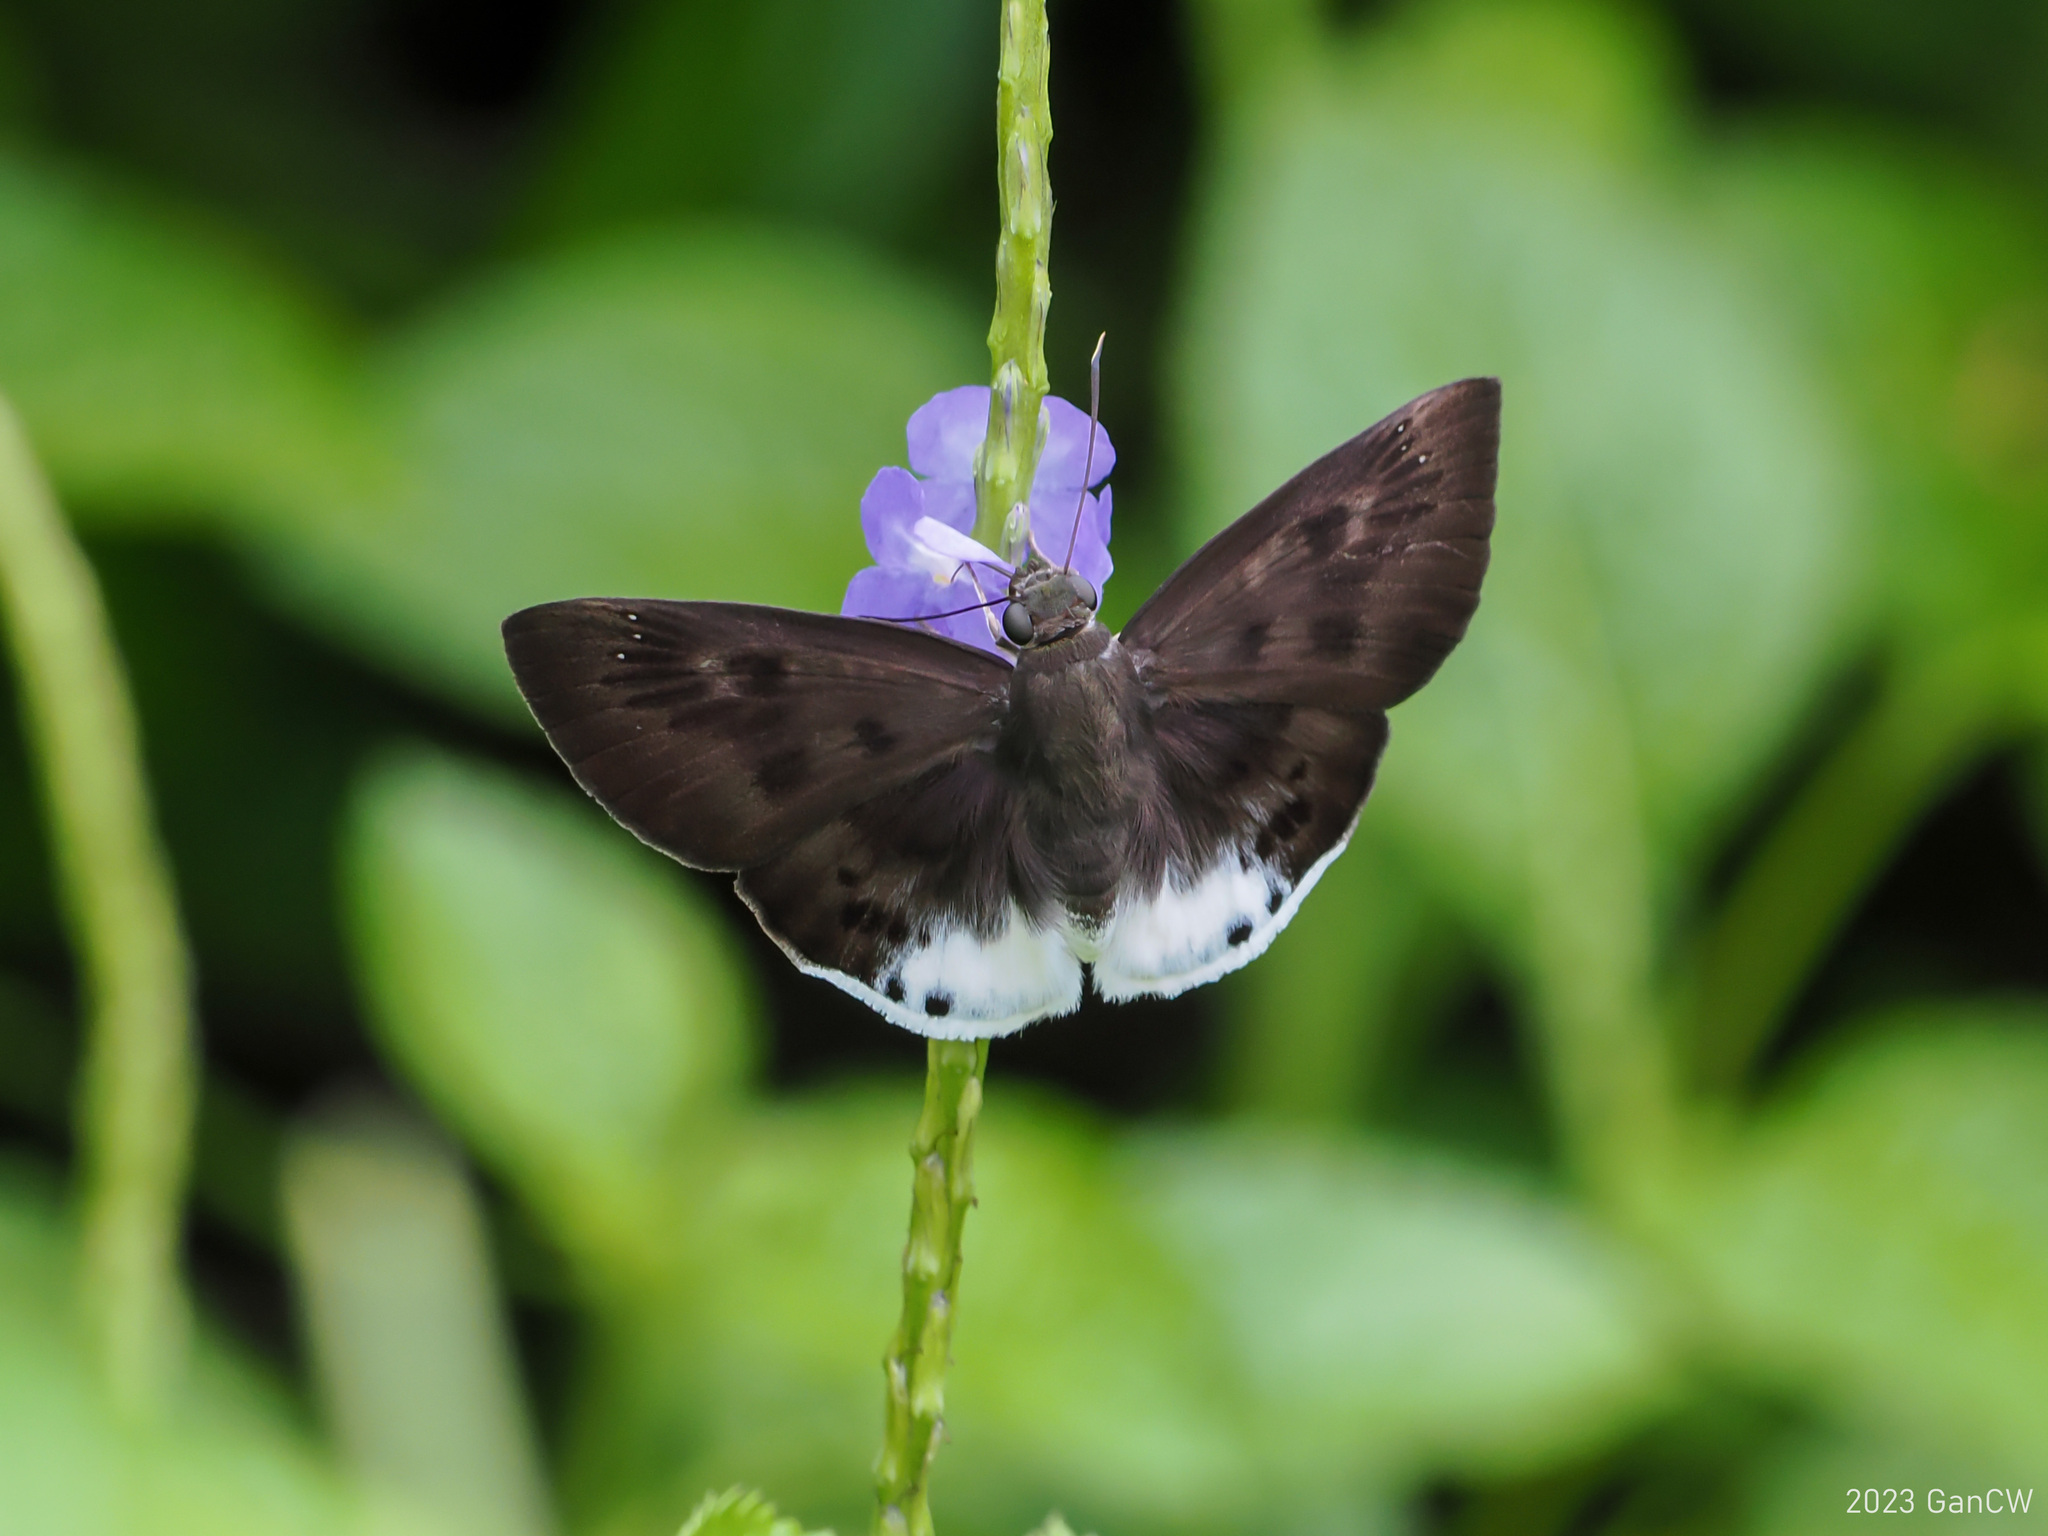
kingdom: Animalia
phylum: Arthropoda
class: Insecta
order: Lepidoptera
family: Hesperiidae
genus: Tagiades
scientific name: Tagiades gana
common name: Suffused snow flat
